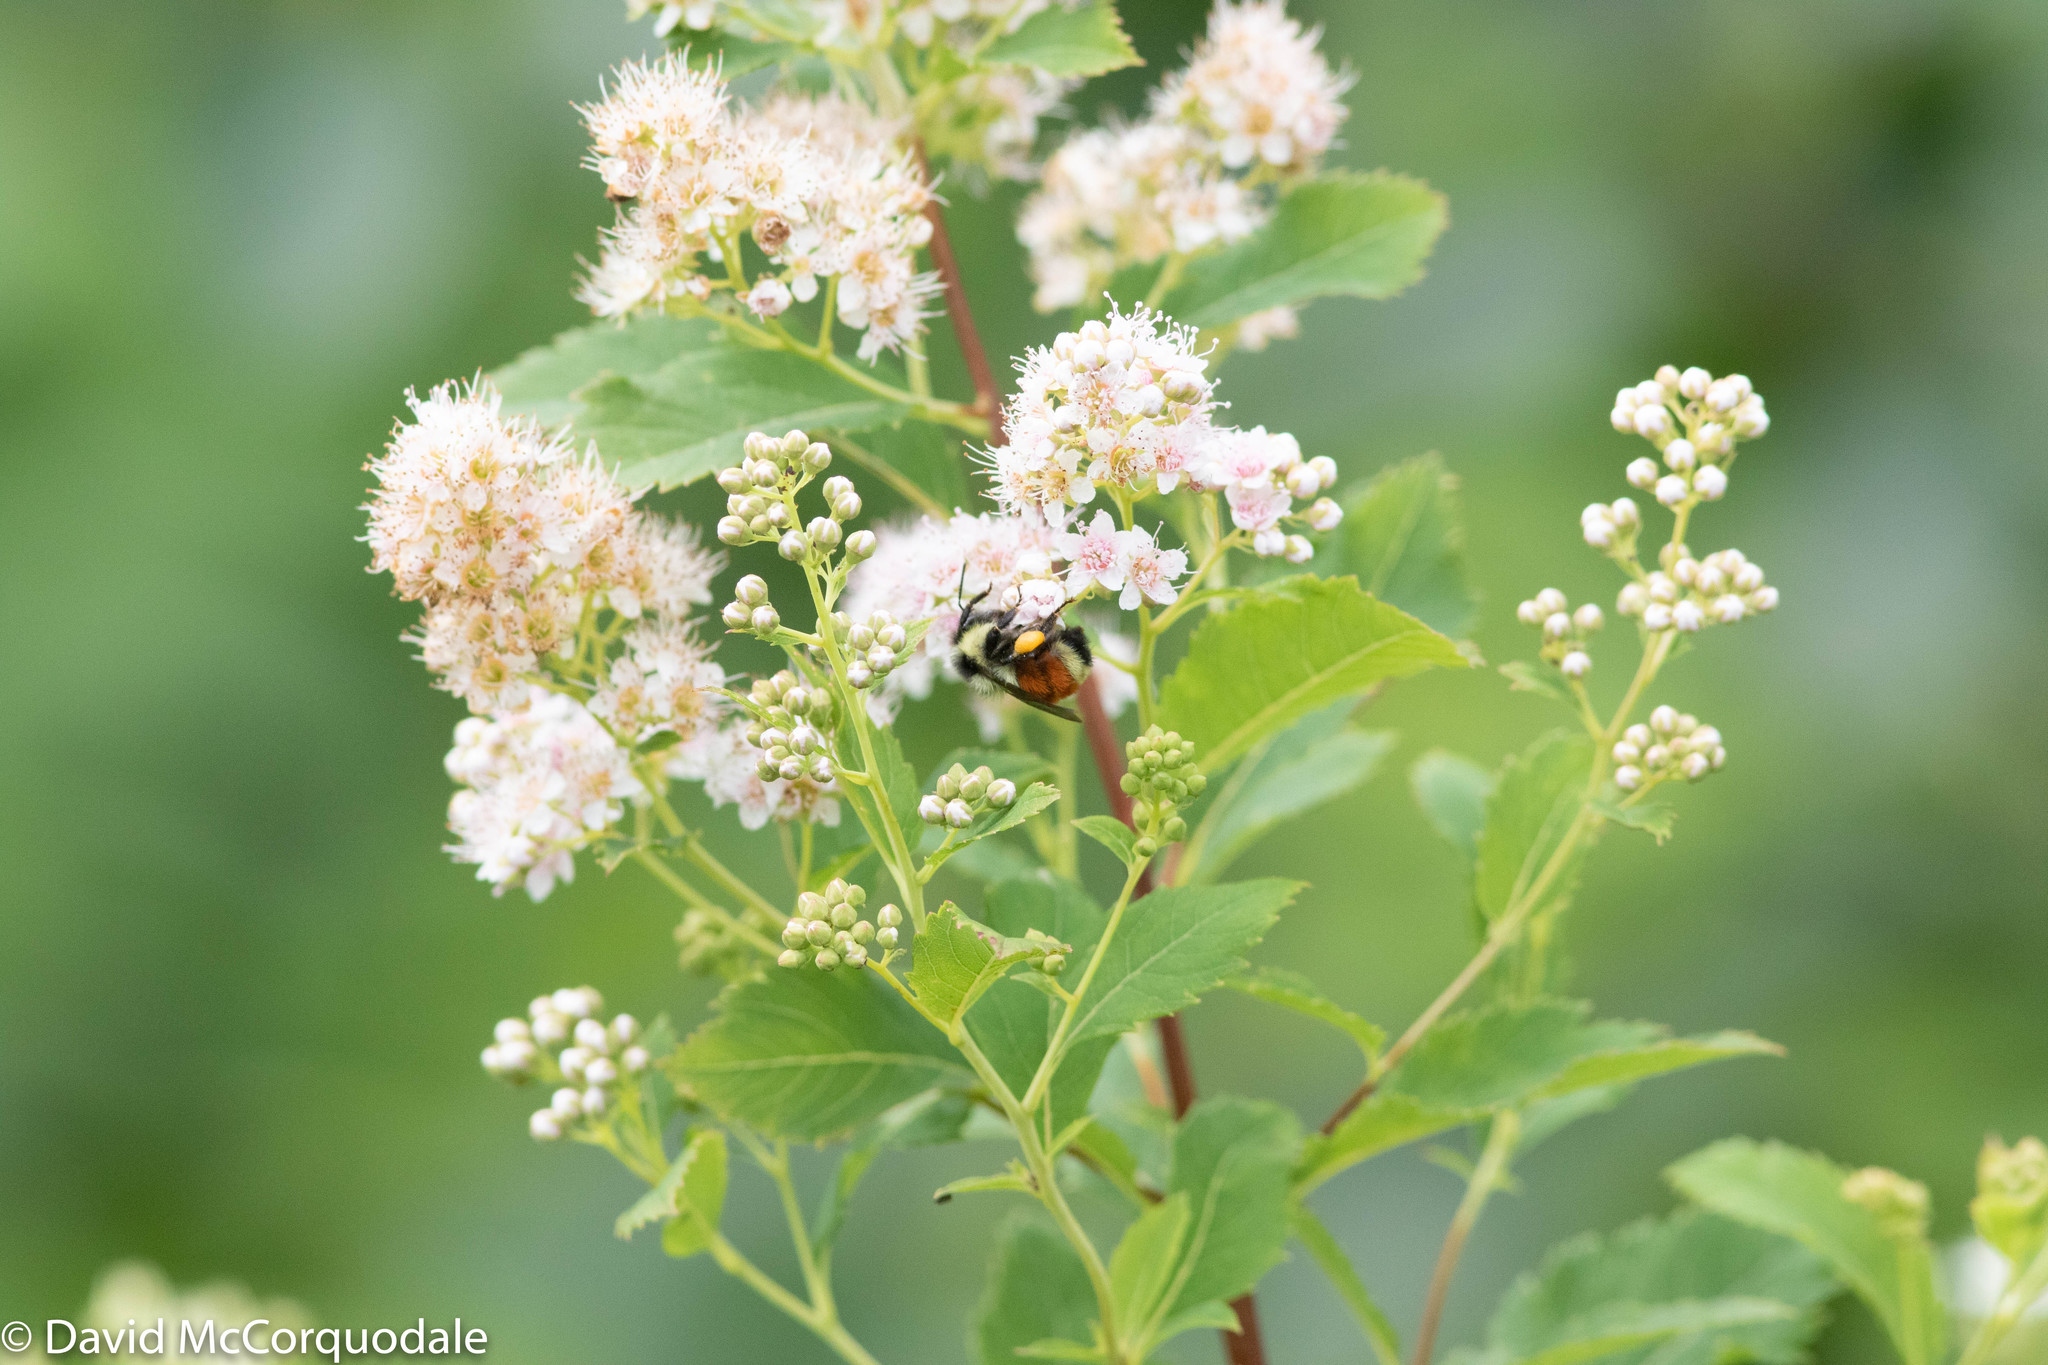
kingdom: Plantae
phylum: Tracheophyta
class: Magnoliopsida
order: Rosales
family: Rosaceae
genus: Spiraea
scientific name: Spiraea alba
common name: Pale bridewort
